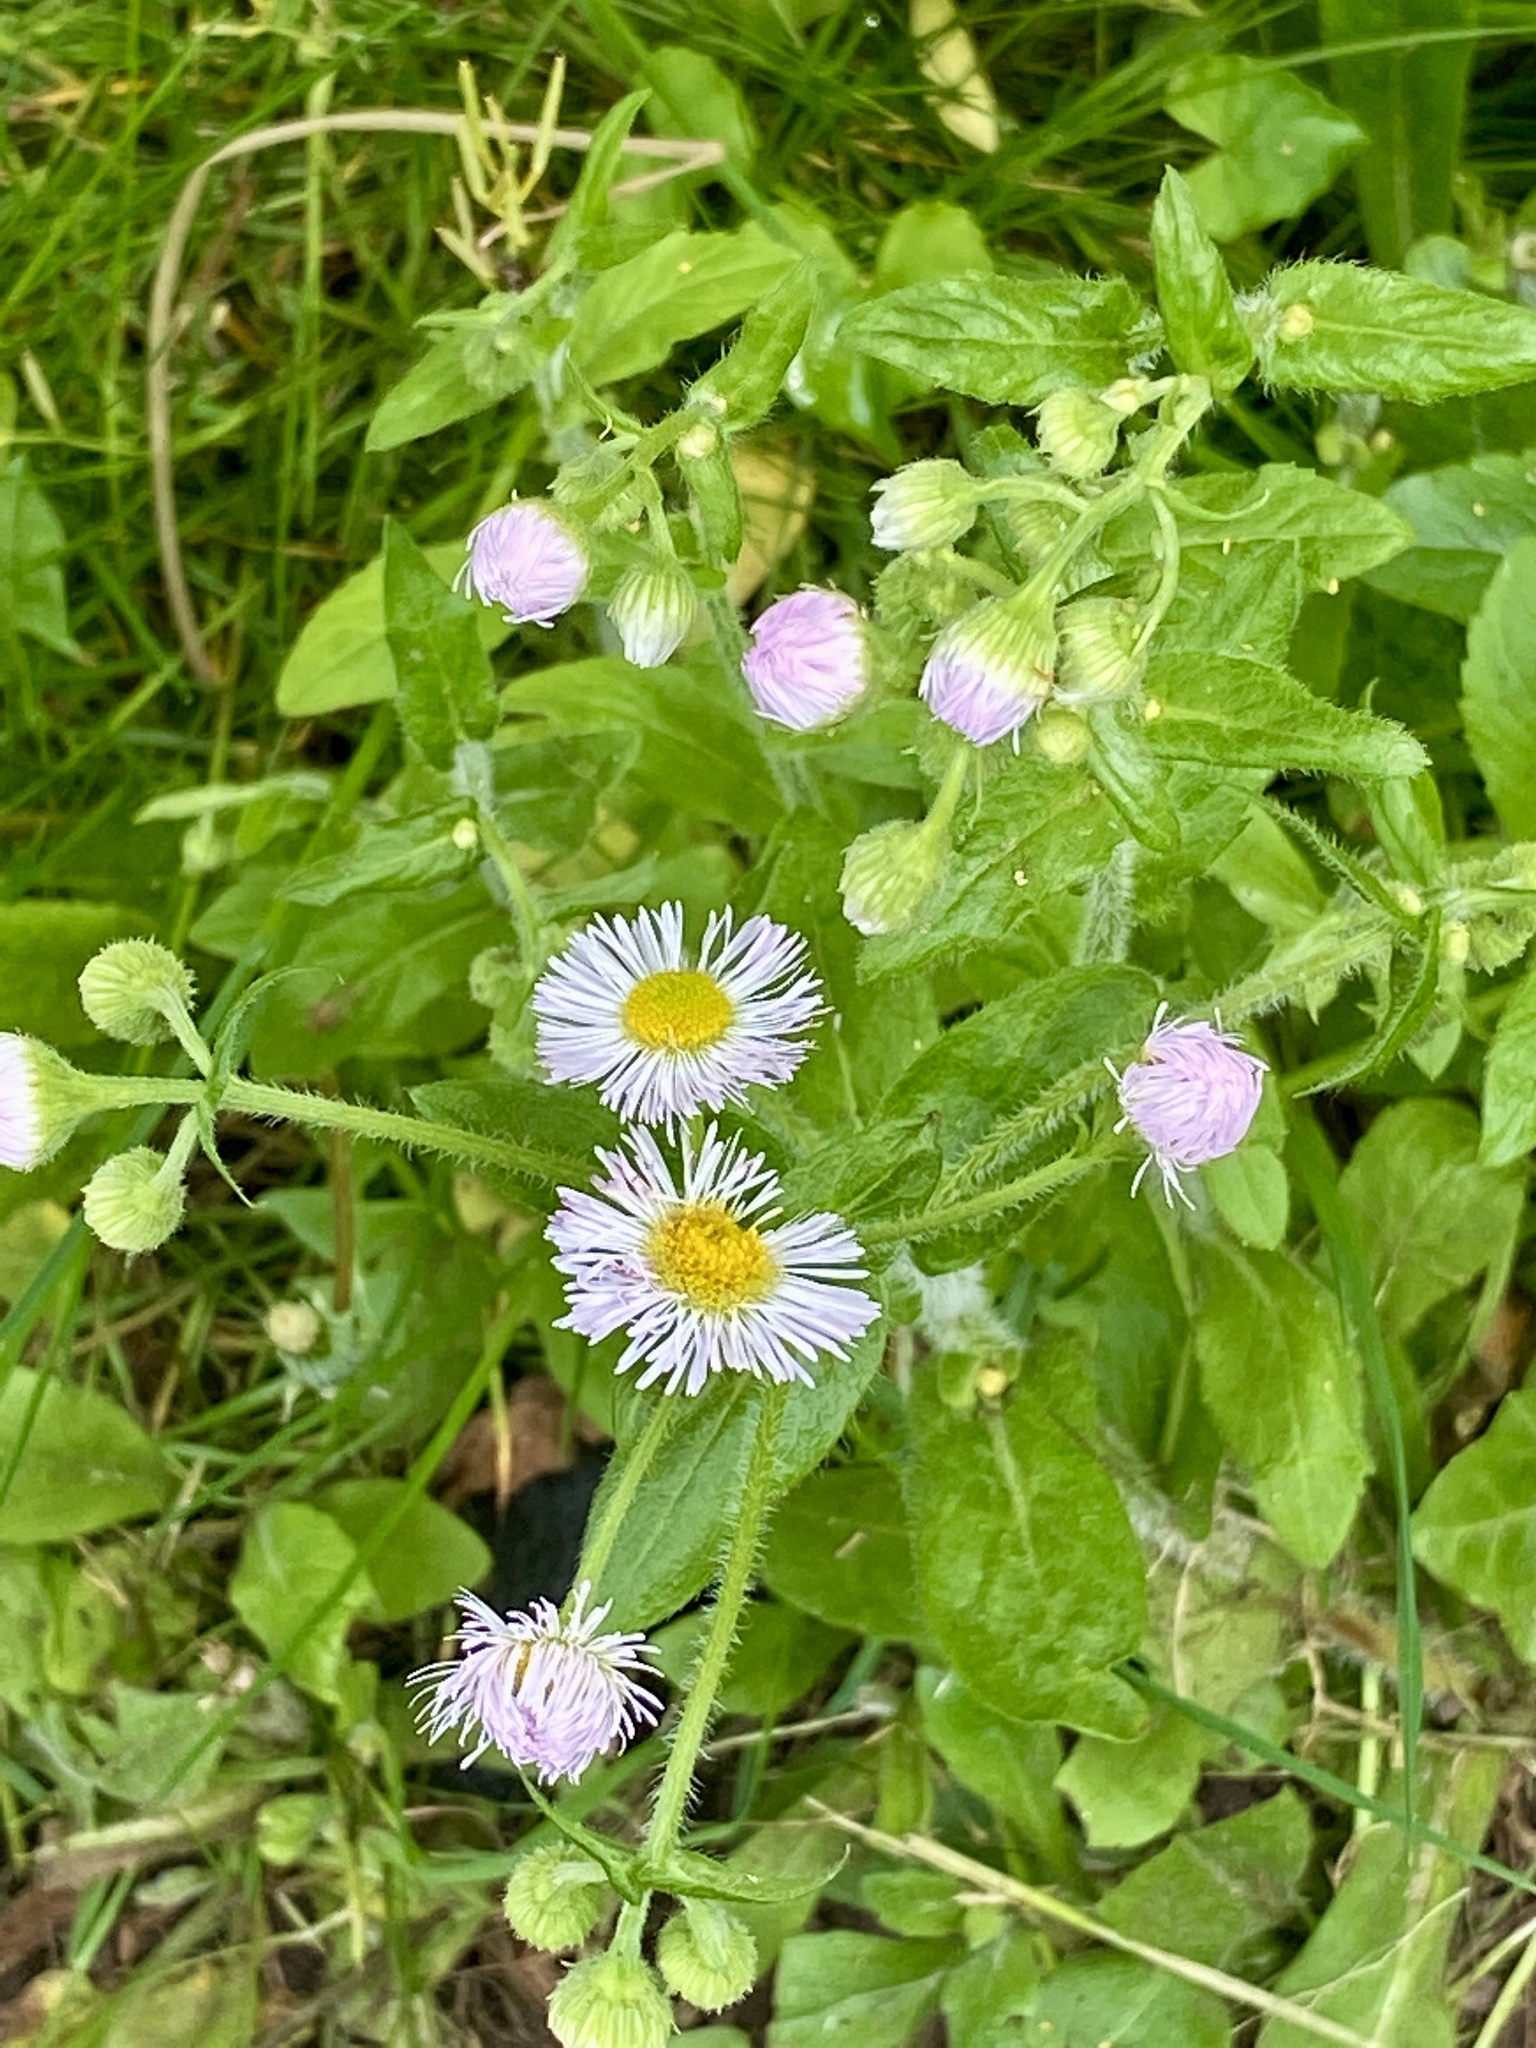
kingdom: Plantae
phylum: Tracheophyta
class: Magnoliopsida
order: Asterales
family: Asteraceae
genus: Erigeron
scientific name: Erigeron philadelphicus
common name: Robin's-plantain
